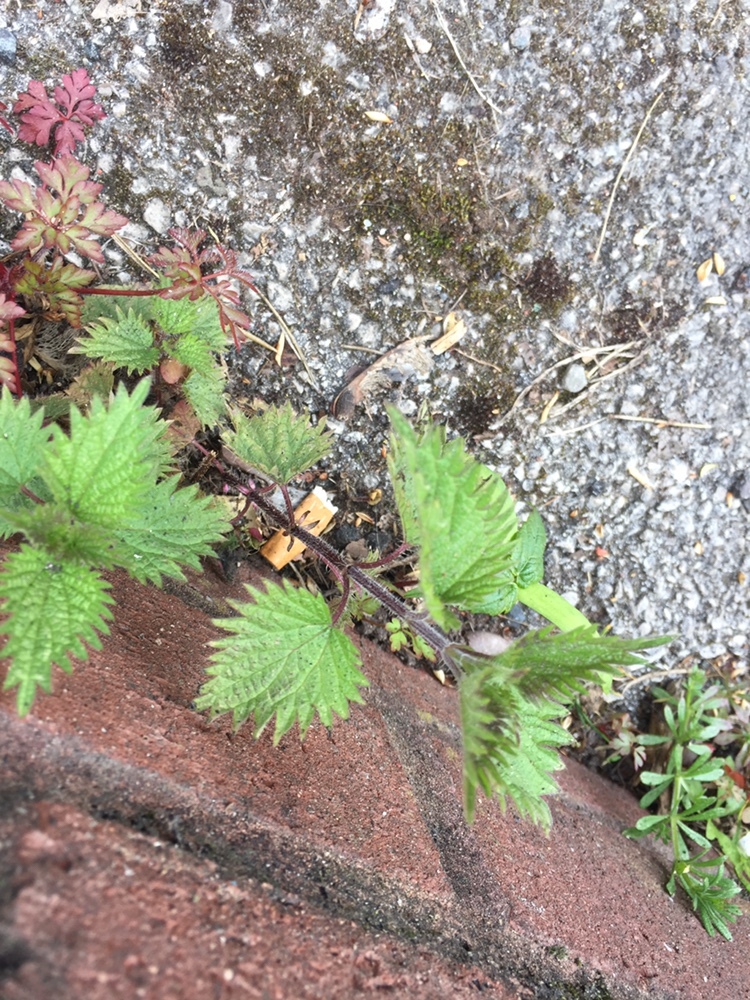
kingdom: Plantae
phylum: Tracheophyta
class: Magnoliopsida
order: Rosales
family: Urticaceae
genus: Urtica
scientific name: Urtica dioica
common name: Common nettle
